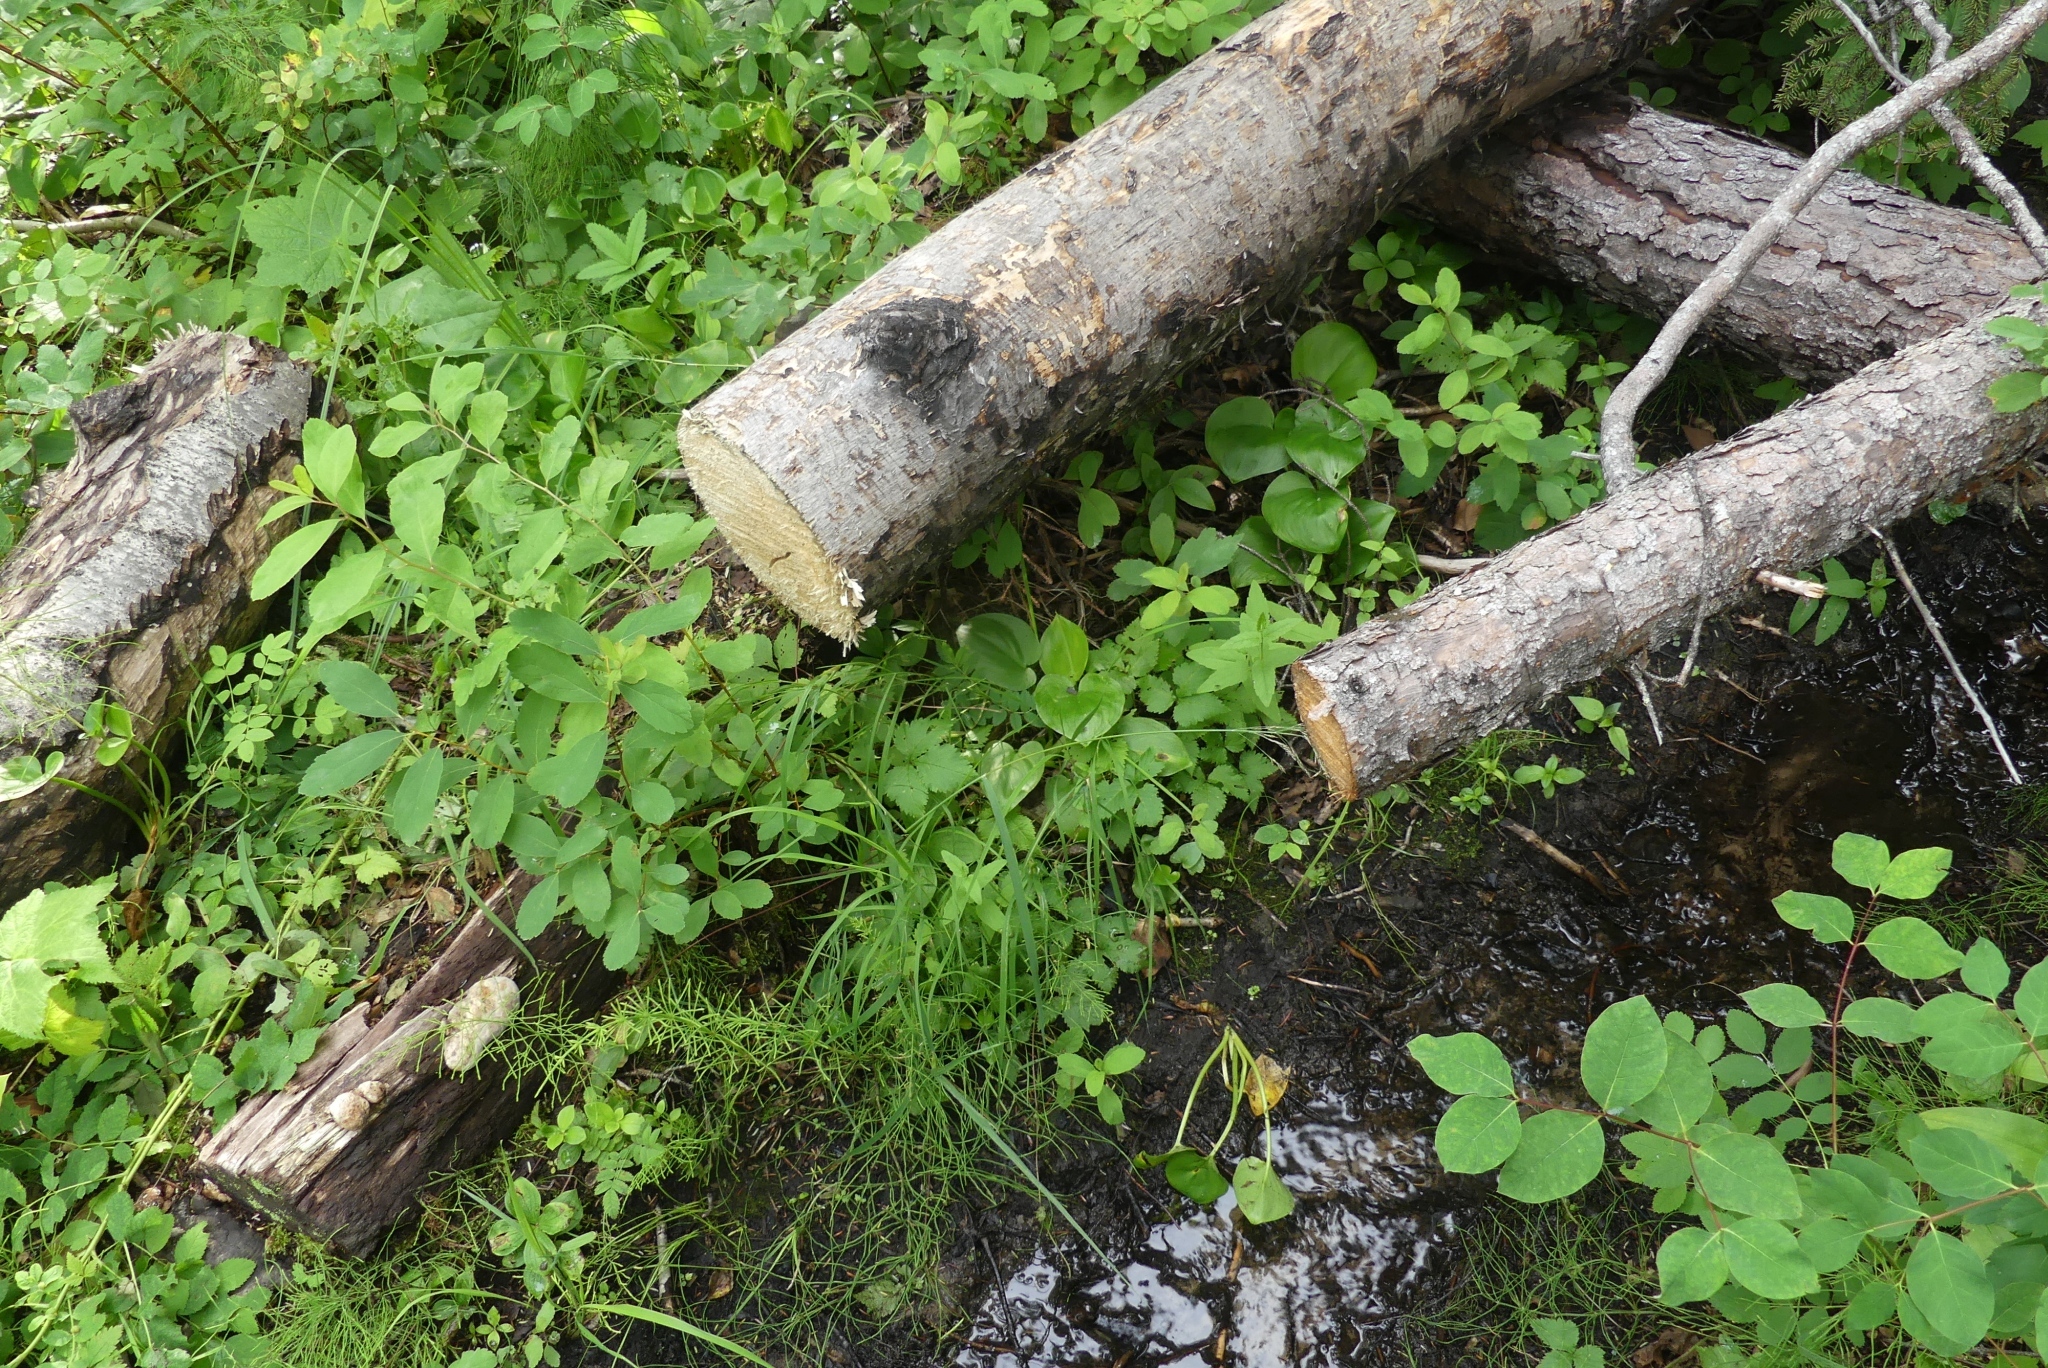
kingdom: Plantae
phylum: Tracheophyta
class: Magnoliopsida
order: Dipsacales
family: Caprifoliaceae
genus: Lonicera
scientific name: Lonicera involucrata
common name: Californian honeysuckle
